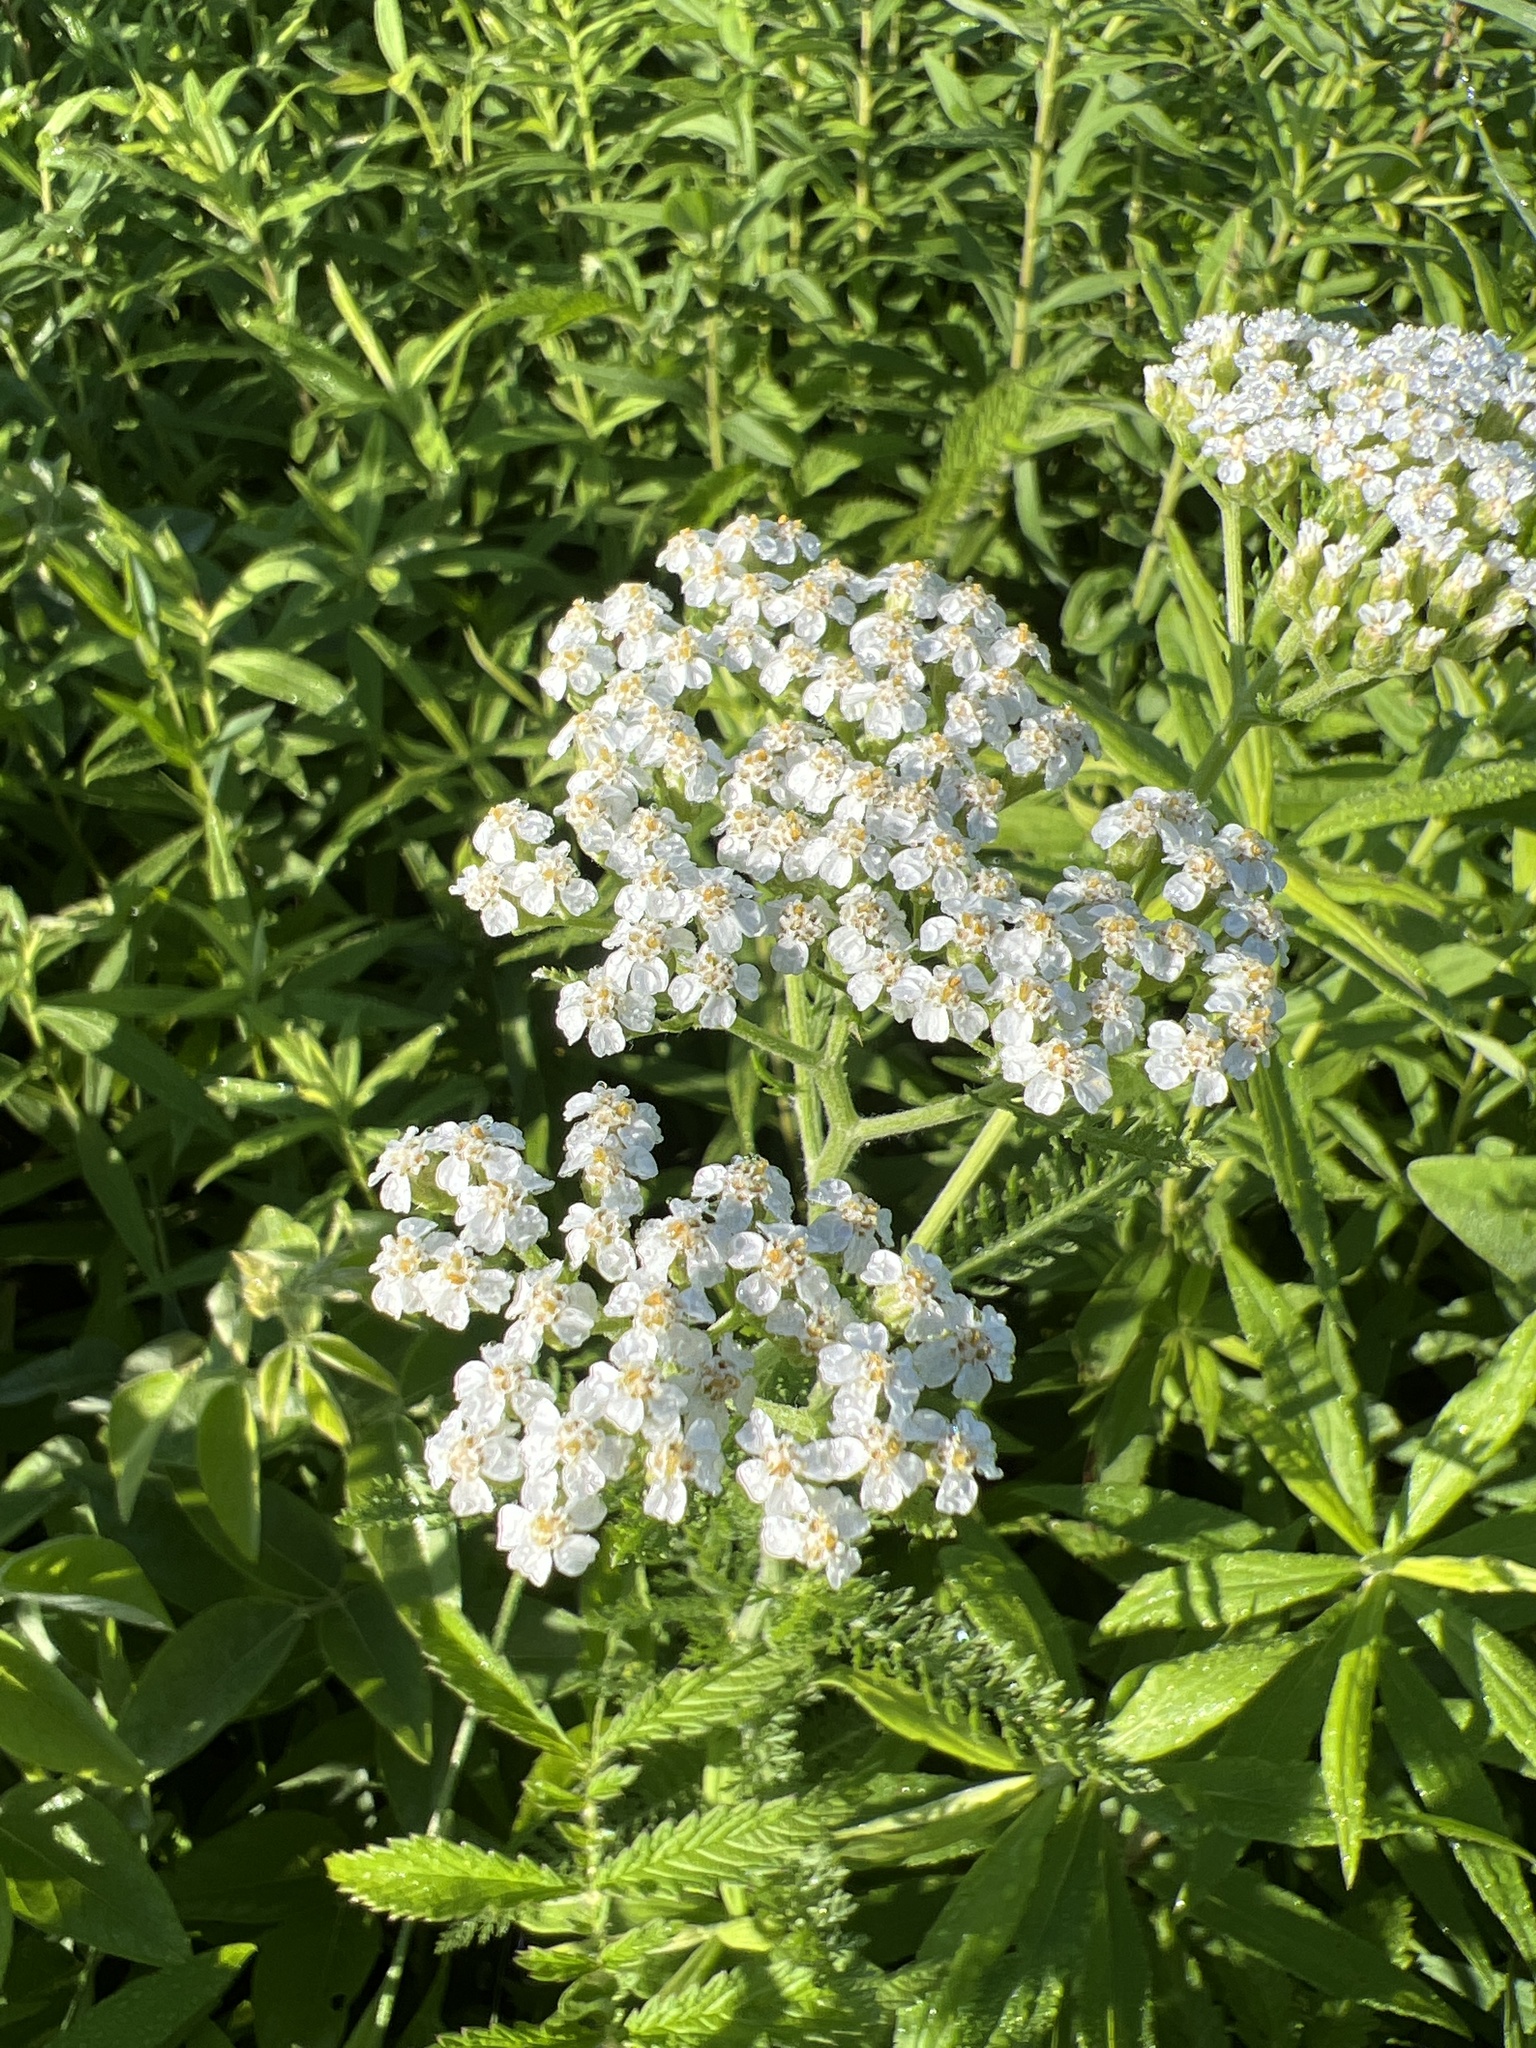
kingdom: Plantae
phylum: Tracheophyta
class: Magnoliopsida
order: Asterales
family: Asteraceae
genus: Achillea
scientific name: Achillea millefolium
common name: Yarrow
